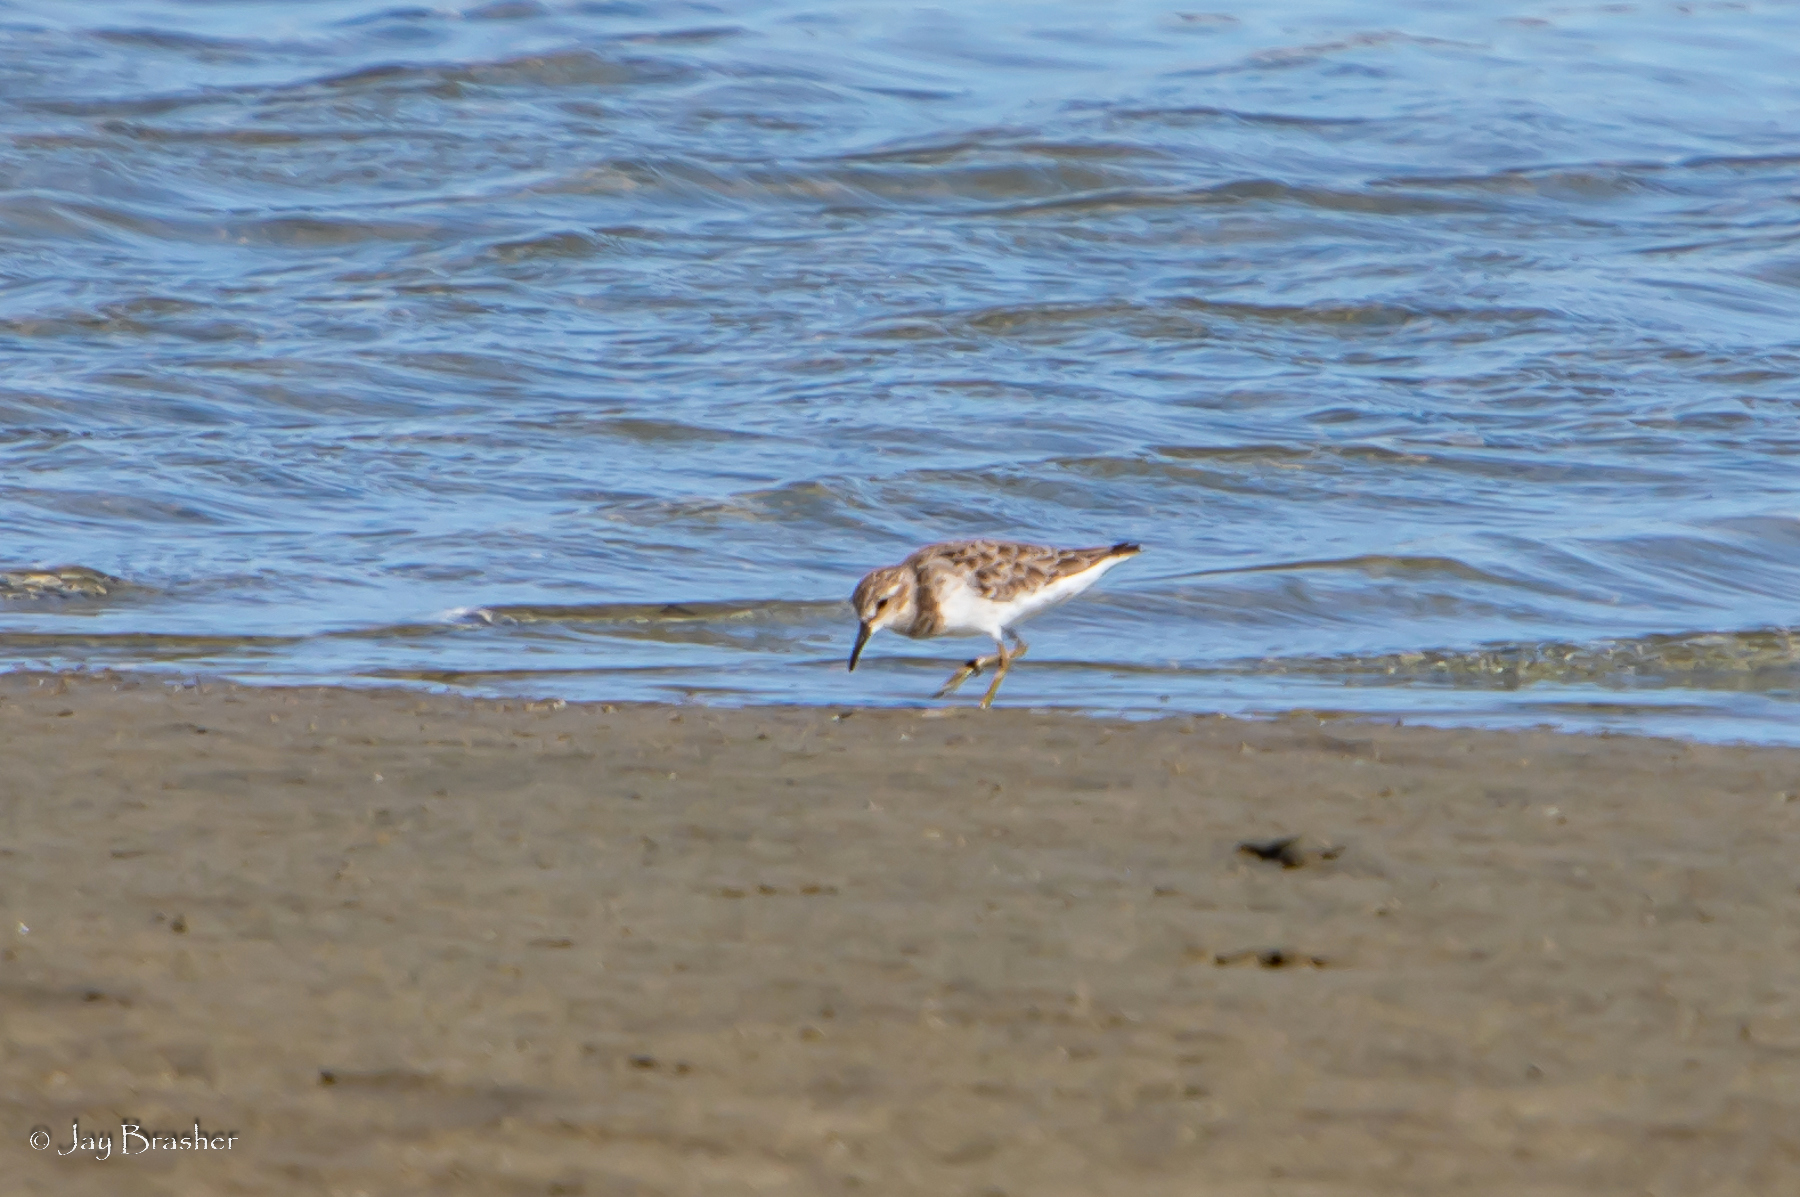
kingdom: Animalia
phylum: Chordata
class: Aves
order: Charadriiformes
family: Scolopacidae
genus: Calidris
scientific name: Calidris minutilla
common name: Least sandpiper
